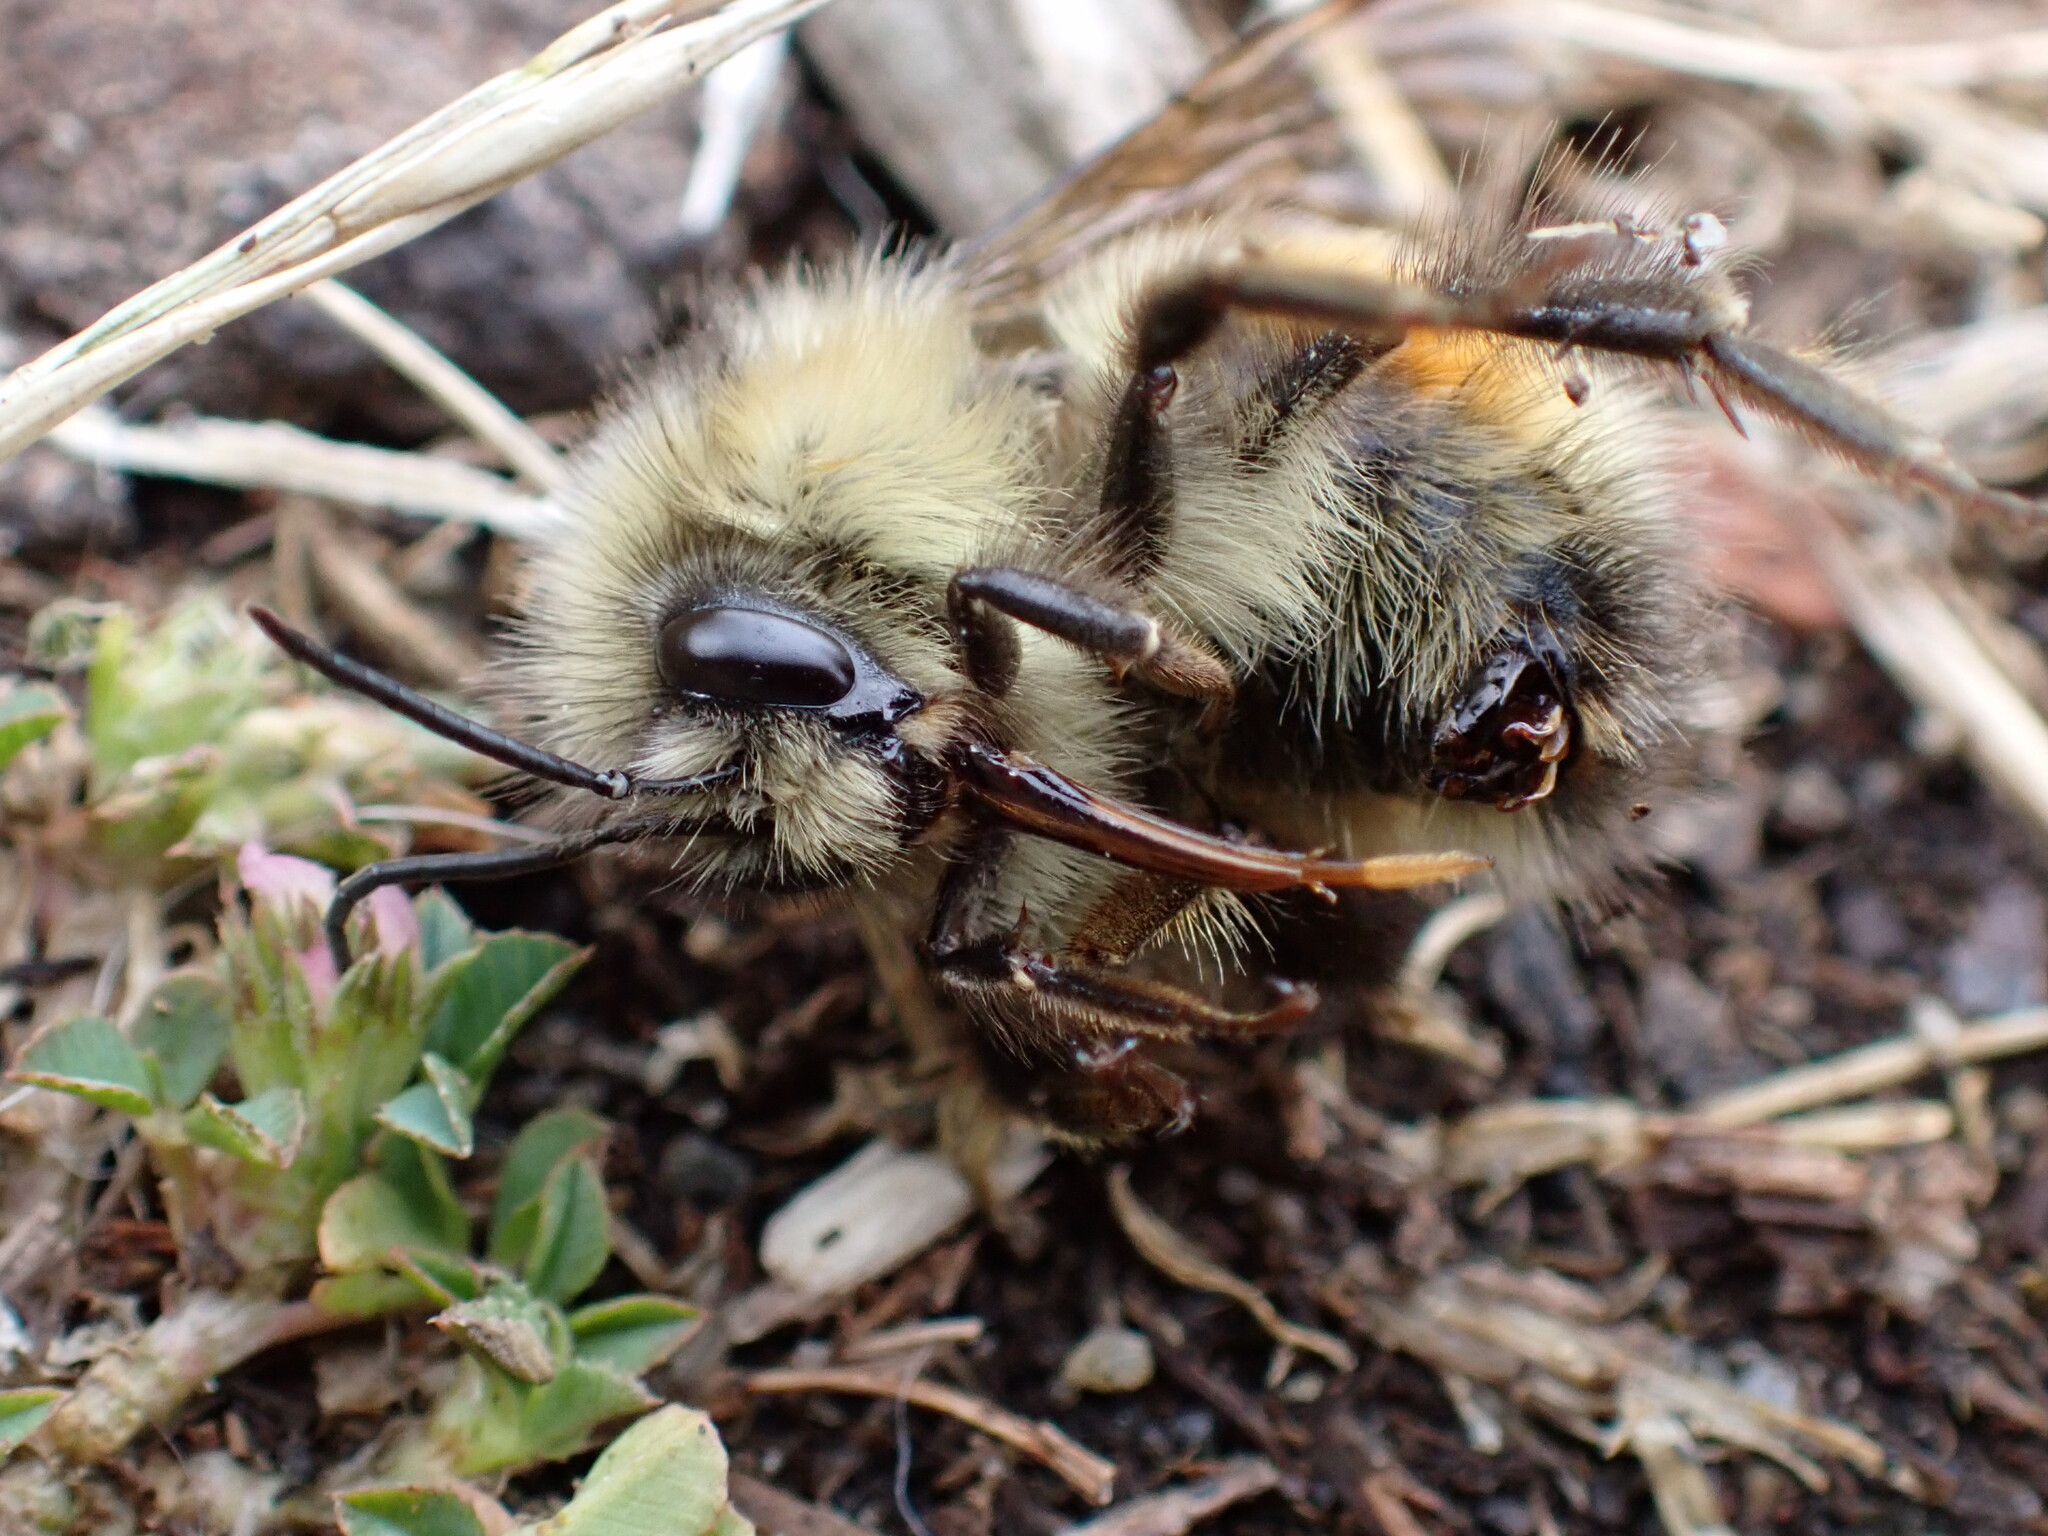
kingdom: Animalia
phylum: Arthropoda
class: Insecta
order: Hymenoptera
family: Apidae
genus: Bombus
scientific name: Bombus melanopygus
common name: Black tail bumble bee
